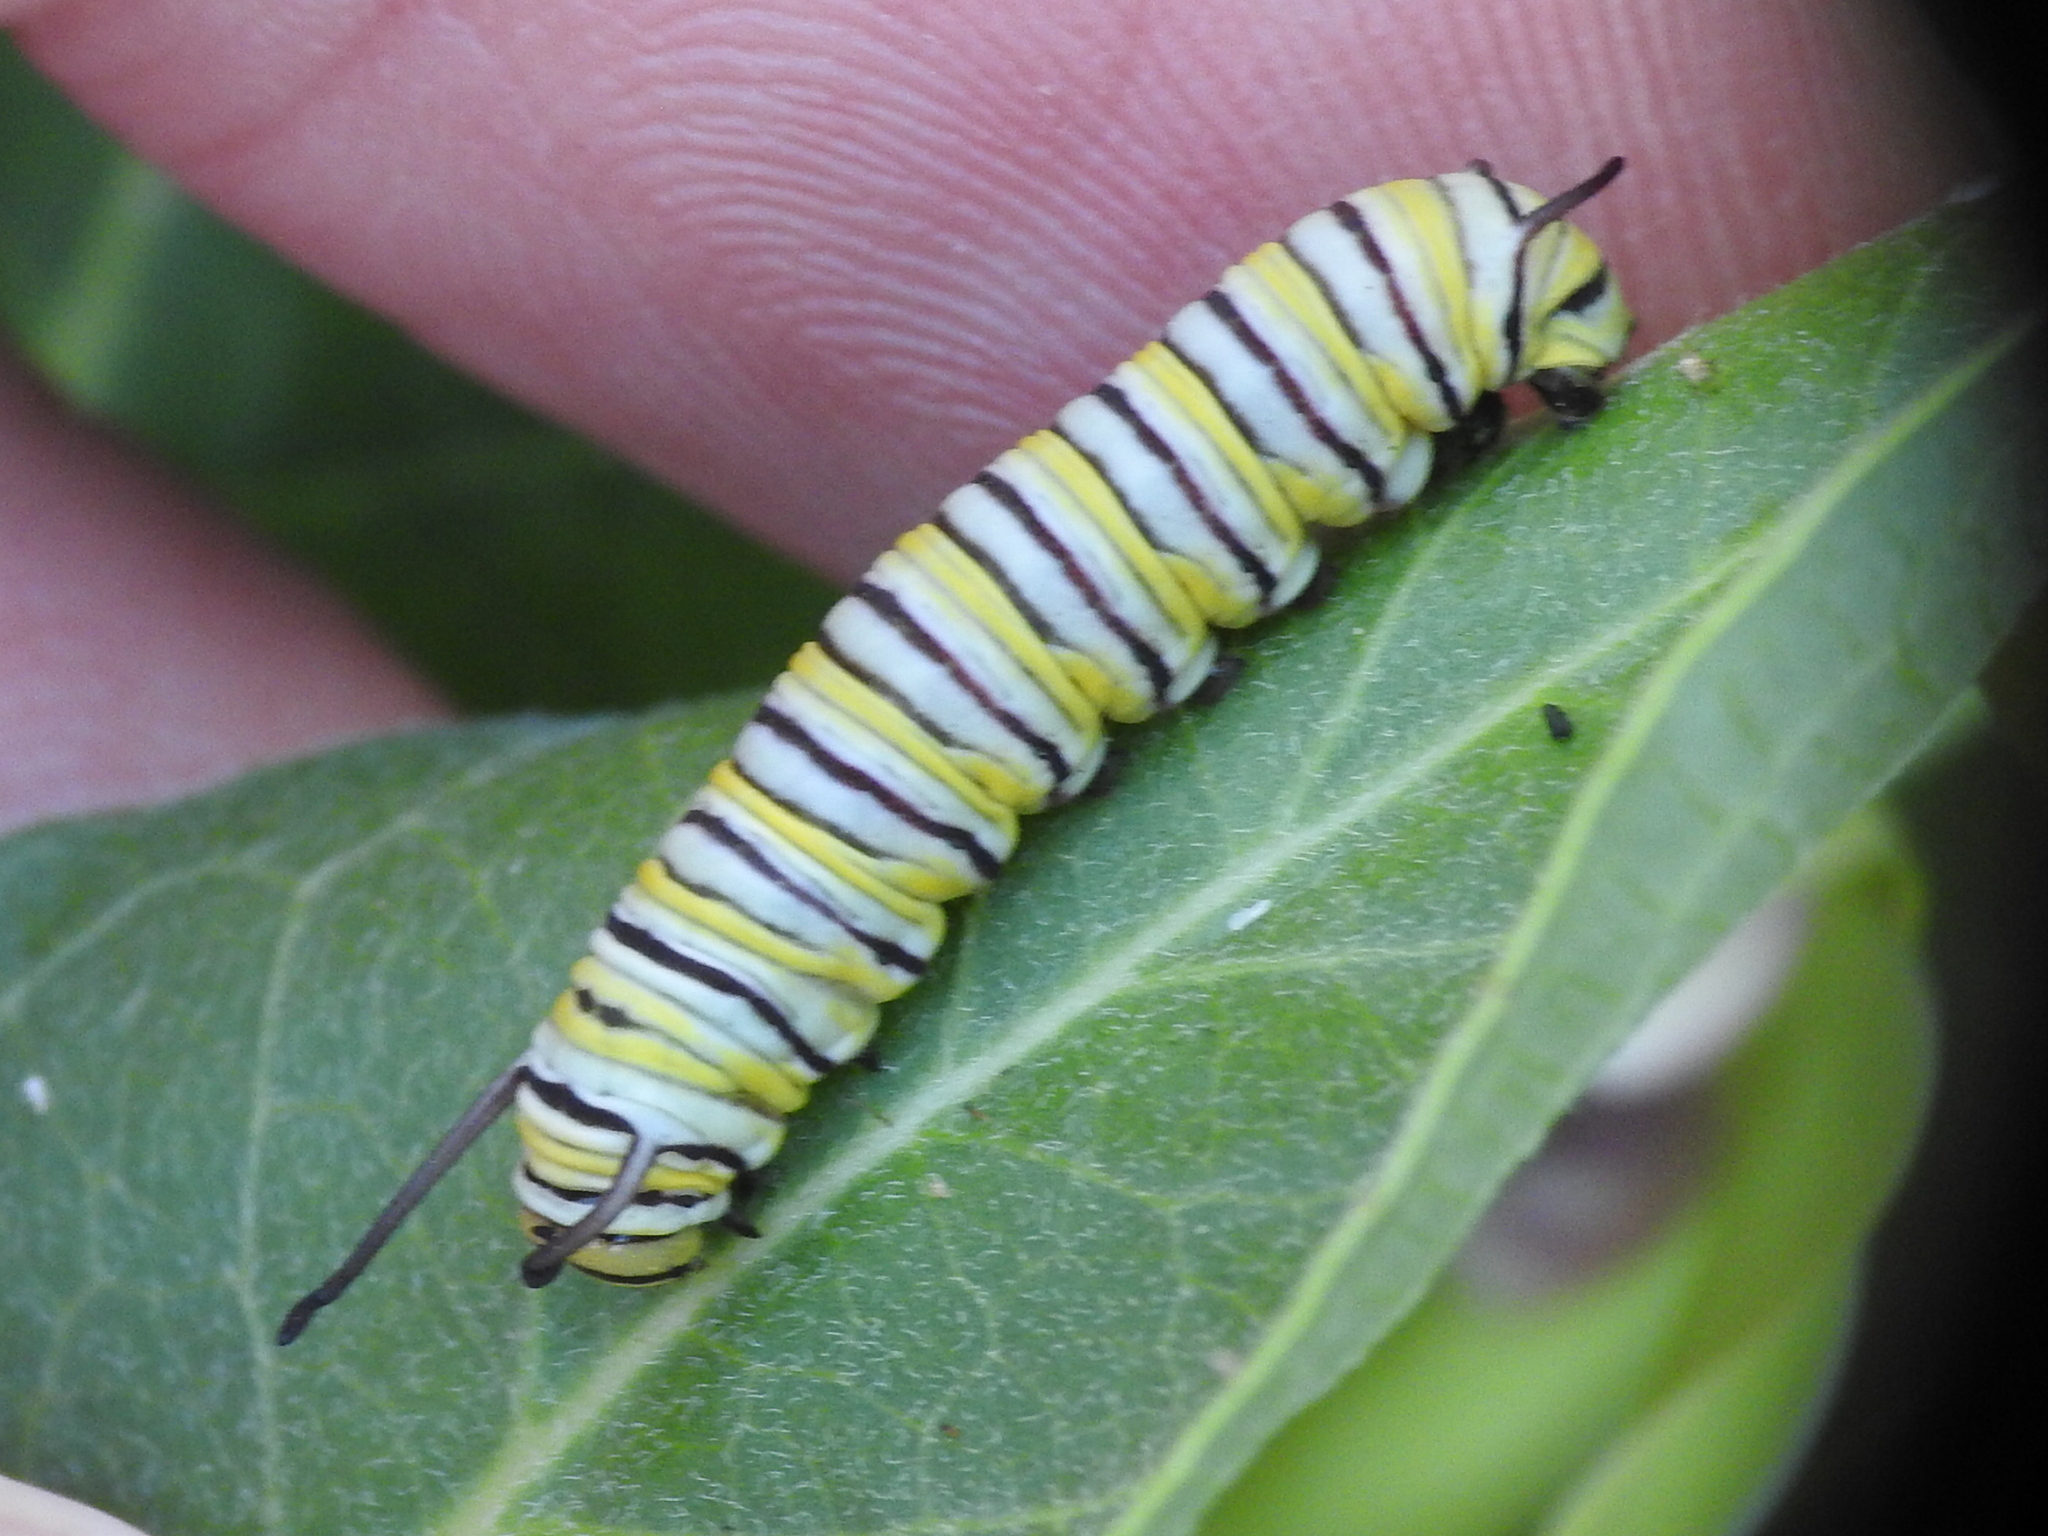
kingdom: Animalia
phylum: Arthropoda
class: Insecta
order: Lepidoptera
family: Nymphalidae
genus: Danaus
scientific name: Danaus plexippus
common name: Monarch
